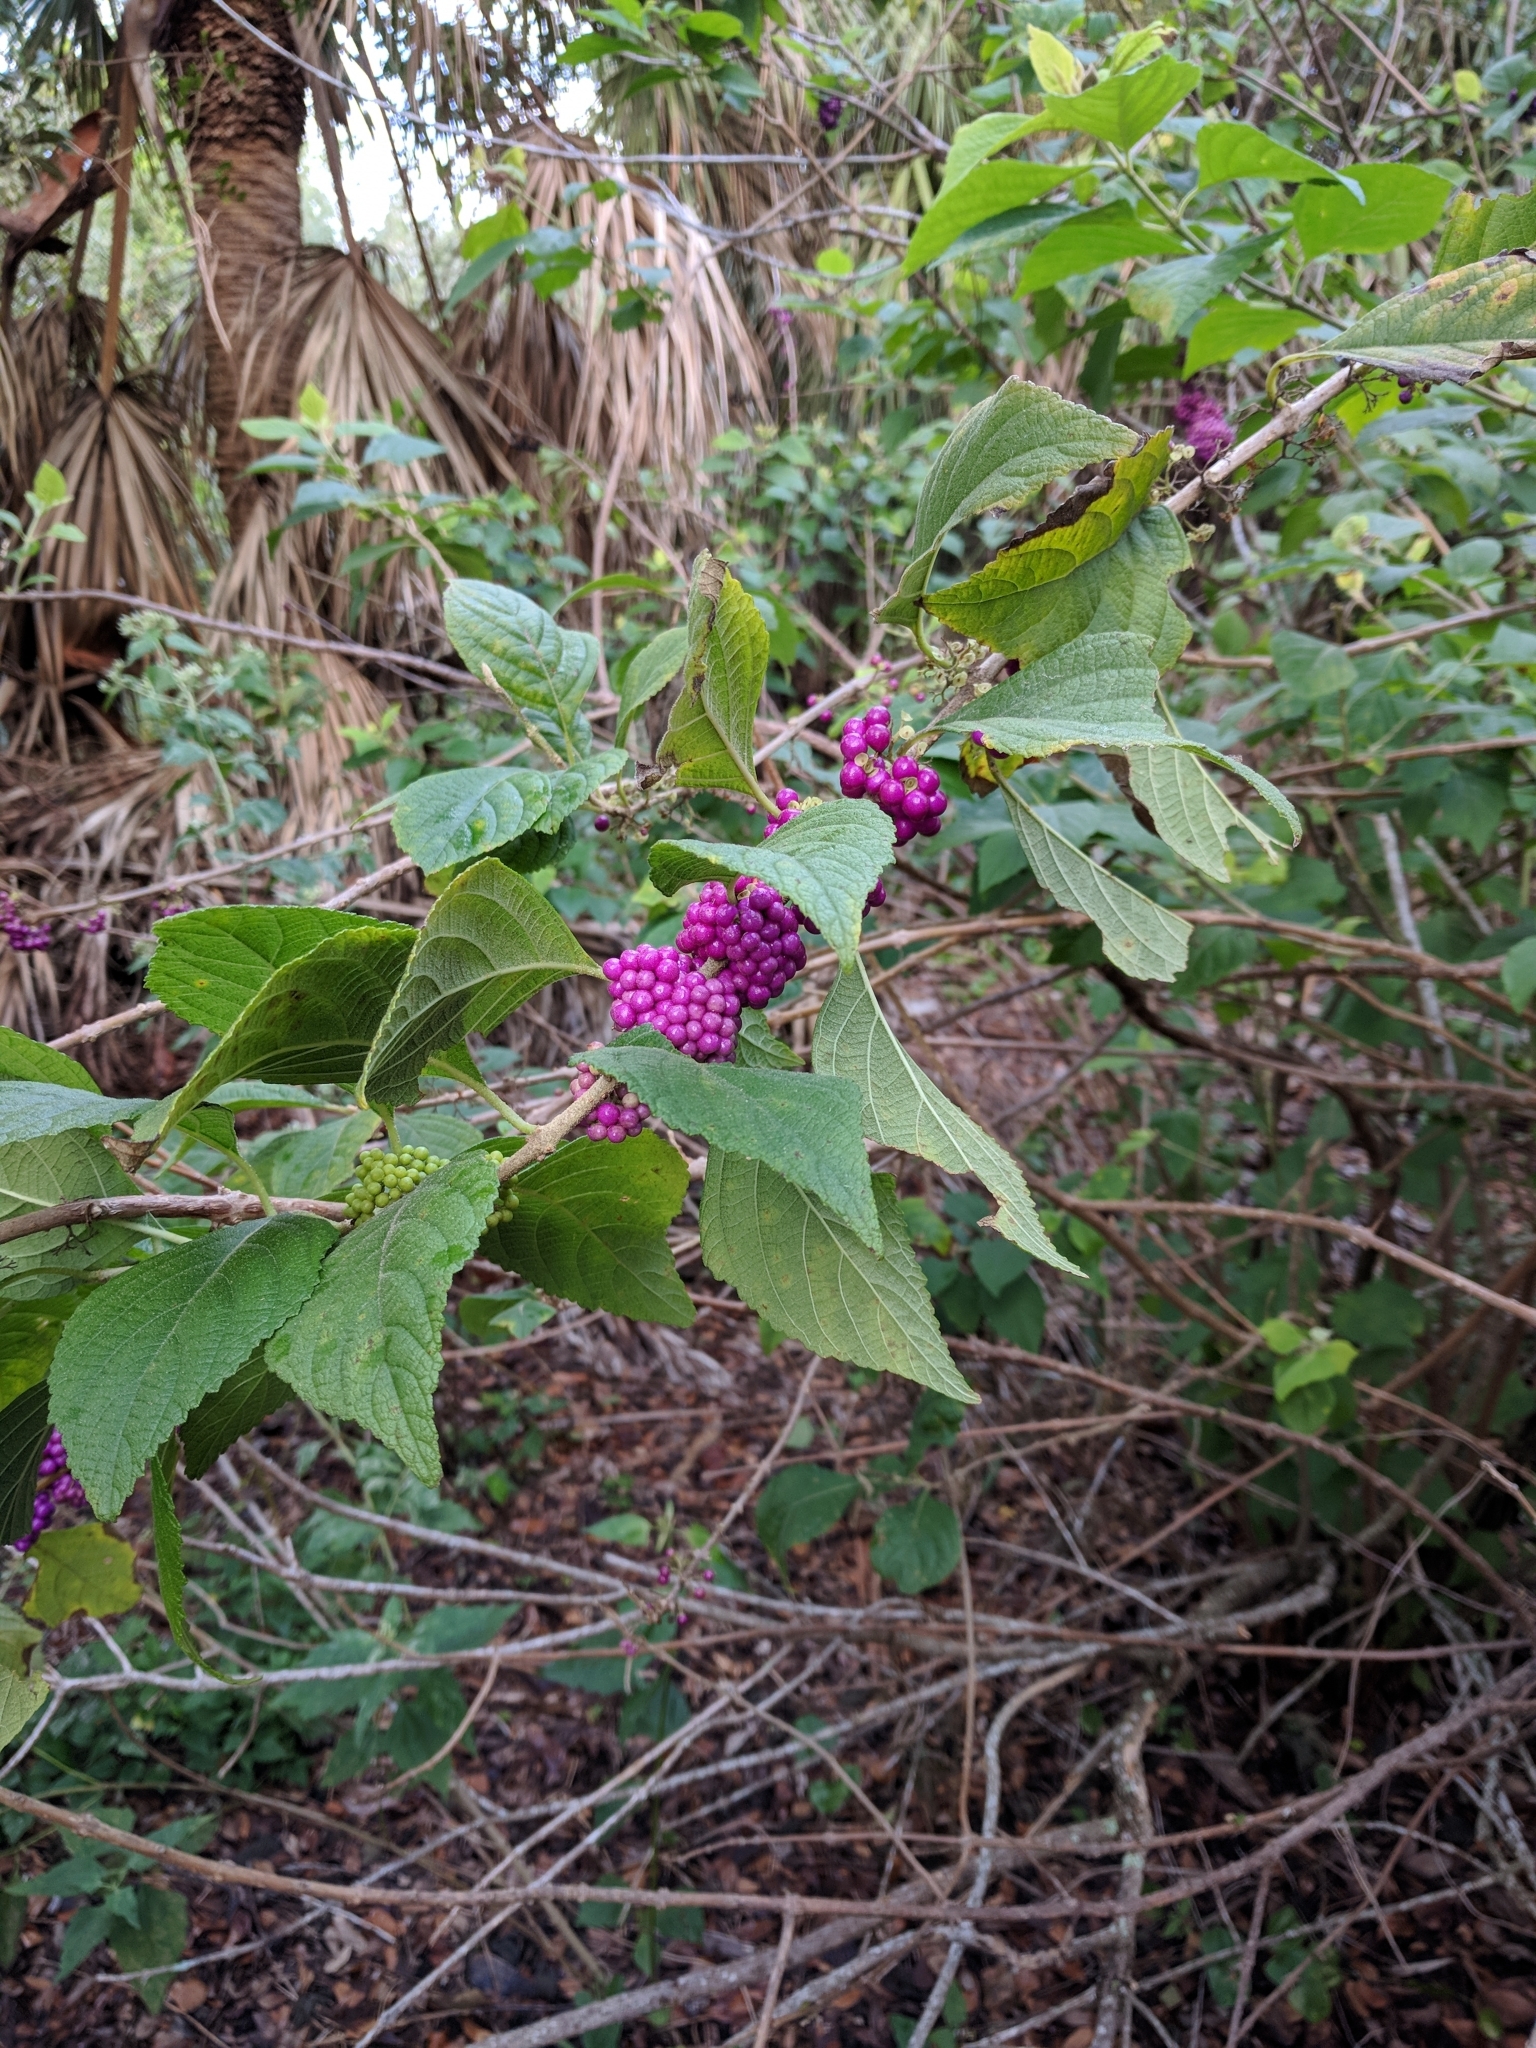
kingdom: Plantae
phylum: Tracheophyta
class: Magnoliopsida
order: Lamiales
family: Lamiaceae
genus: Callicarpa
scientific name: Callicarpa americana
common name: American beautyberry
